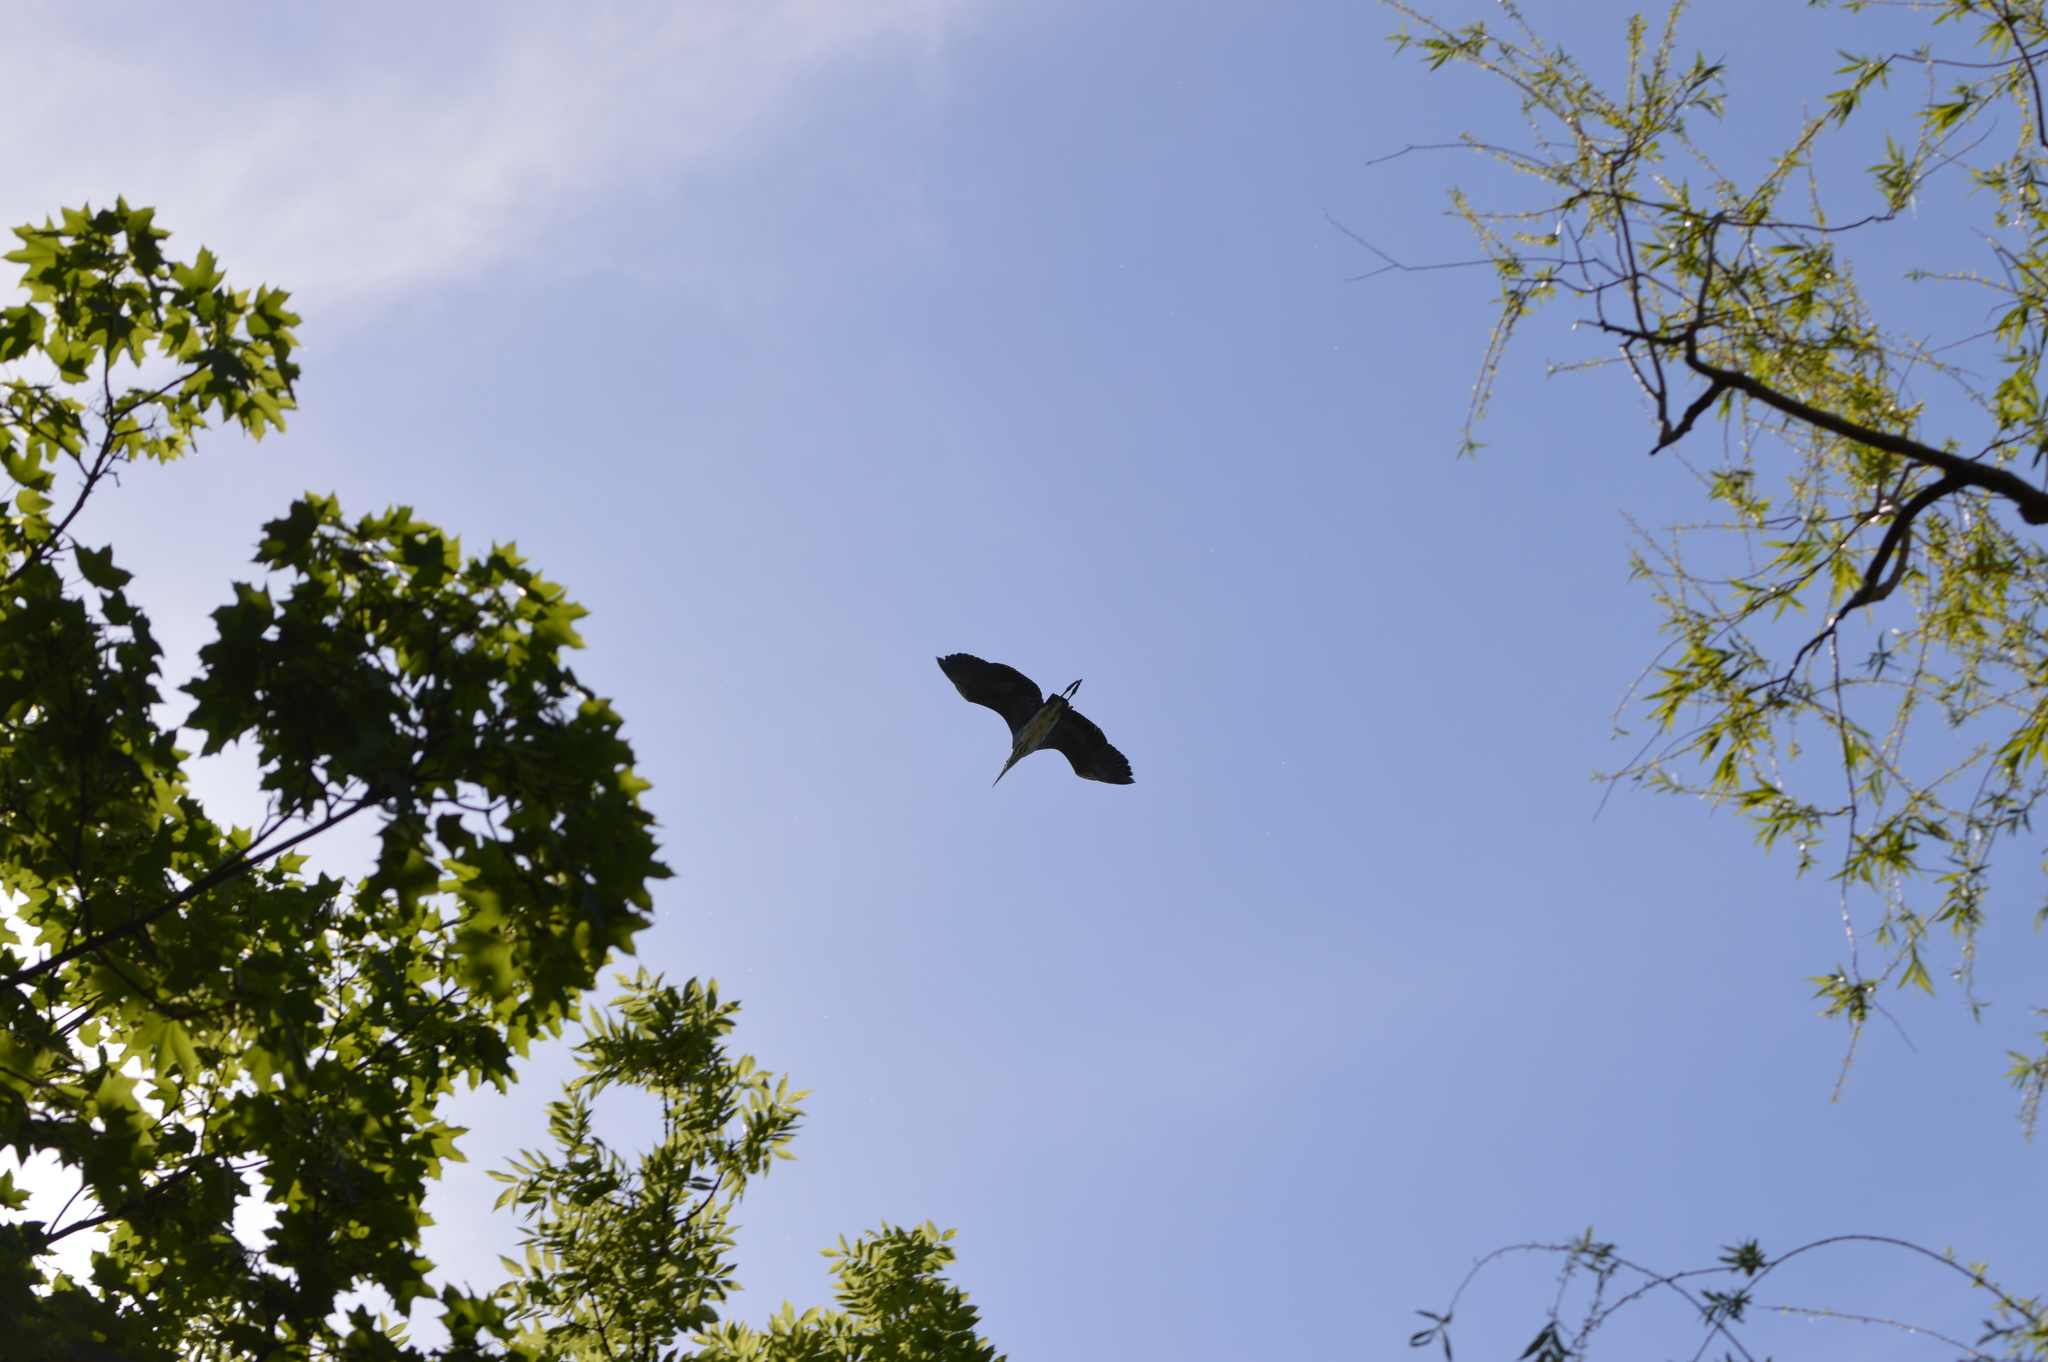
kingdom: Animalia
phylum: Chordata
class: Aves
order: Pelecaniformes
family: Ardeidae
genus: Ardea
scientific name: Ardea cinerea
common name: Grey heron
